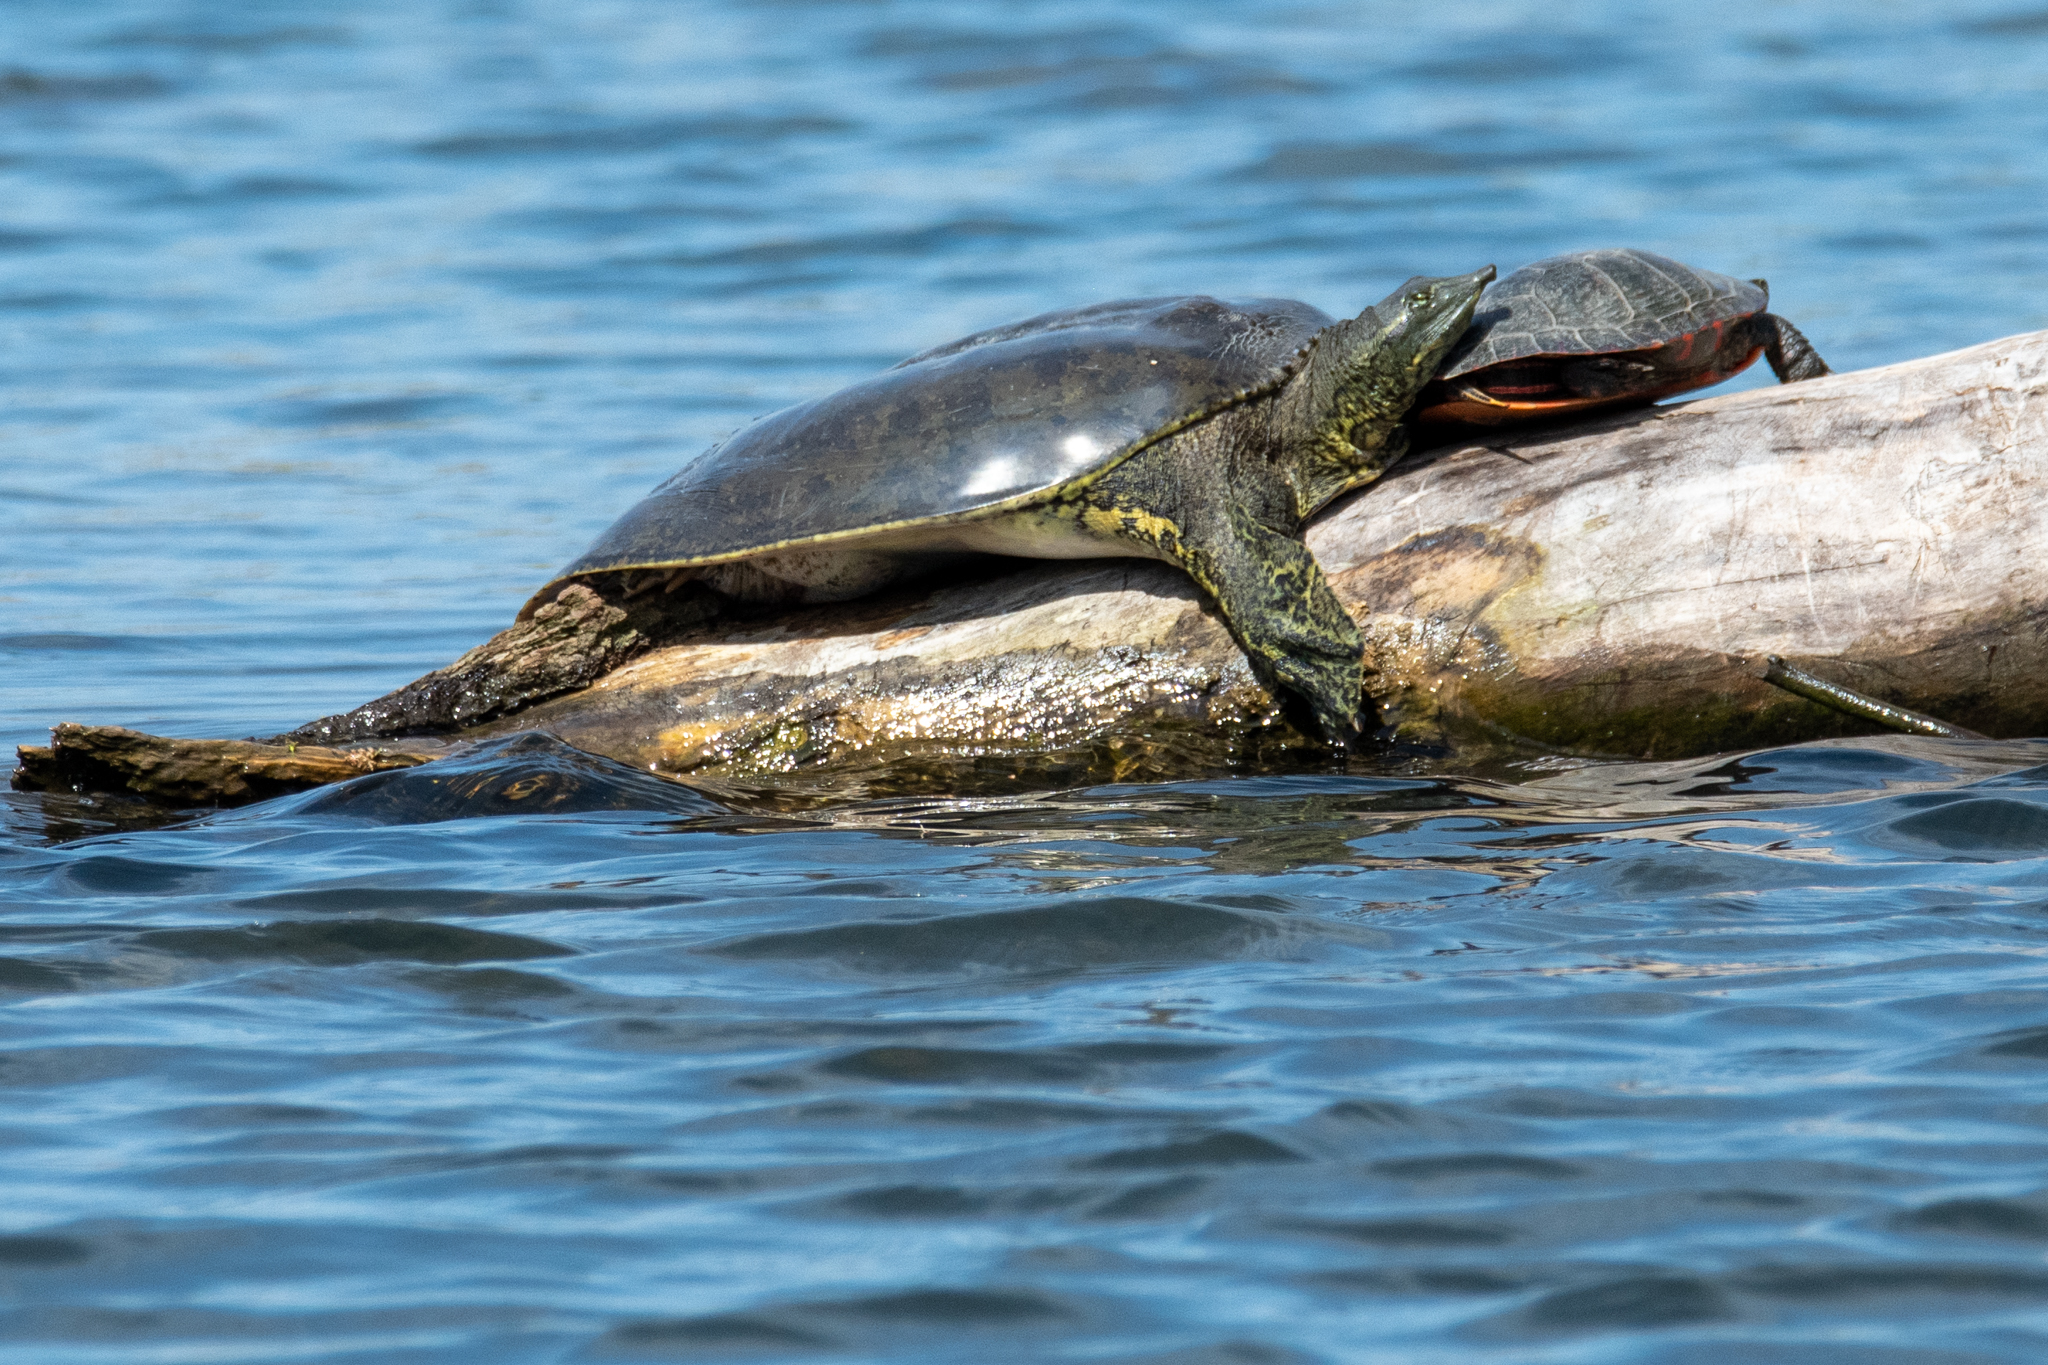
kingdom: Animalia
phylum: Chordata
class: Testudines
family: Trionychidae
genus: Apalone
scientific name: Apalone spinifera
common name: Spiny softshell turtle
